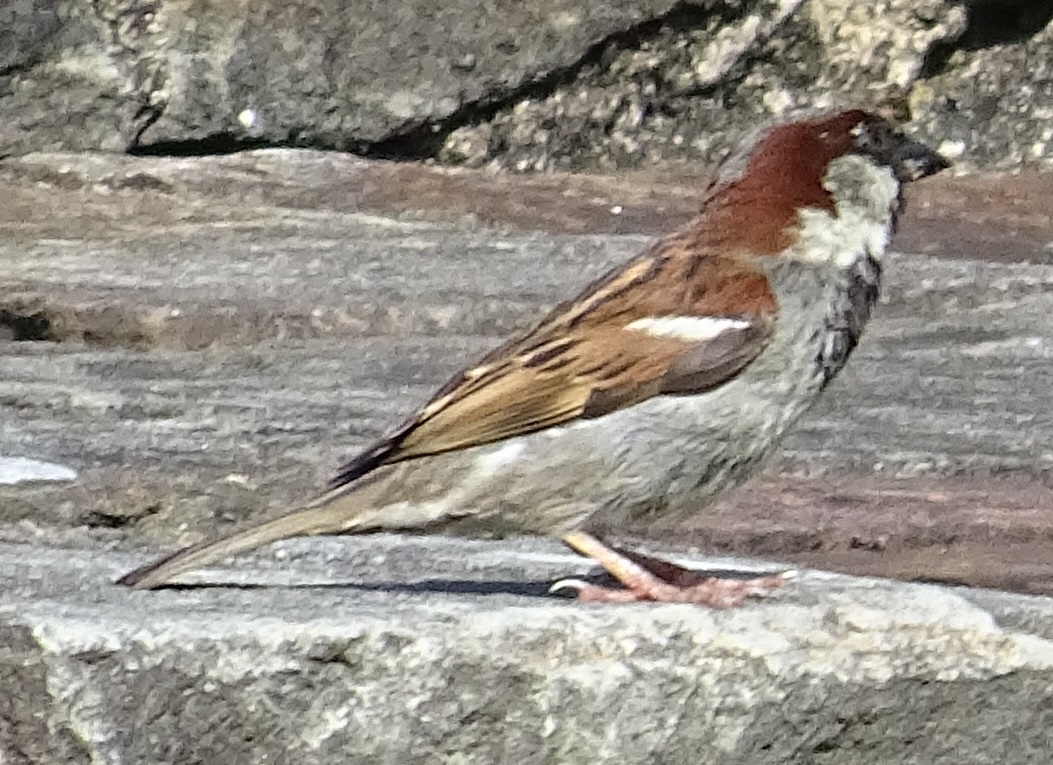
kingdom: Animalia
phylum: Chordata
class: Aves
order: Passeriformes
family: Passeridae
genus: Passer
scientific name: Passer domesticus
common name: House sparrow
